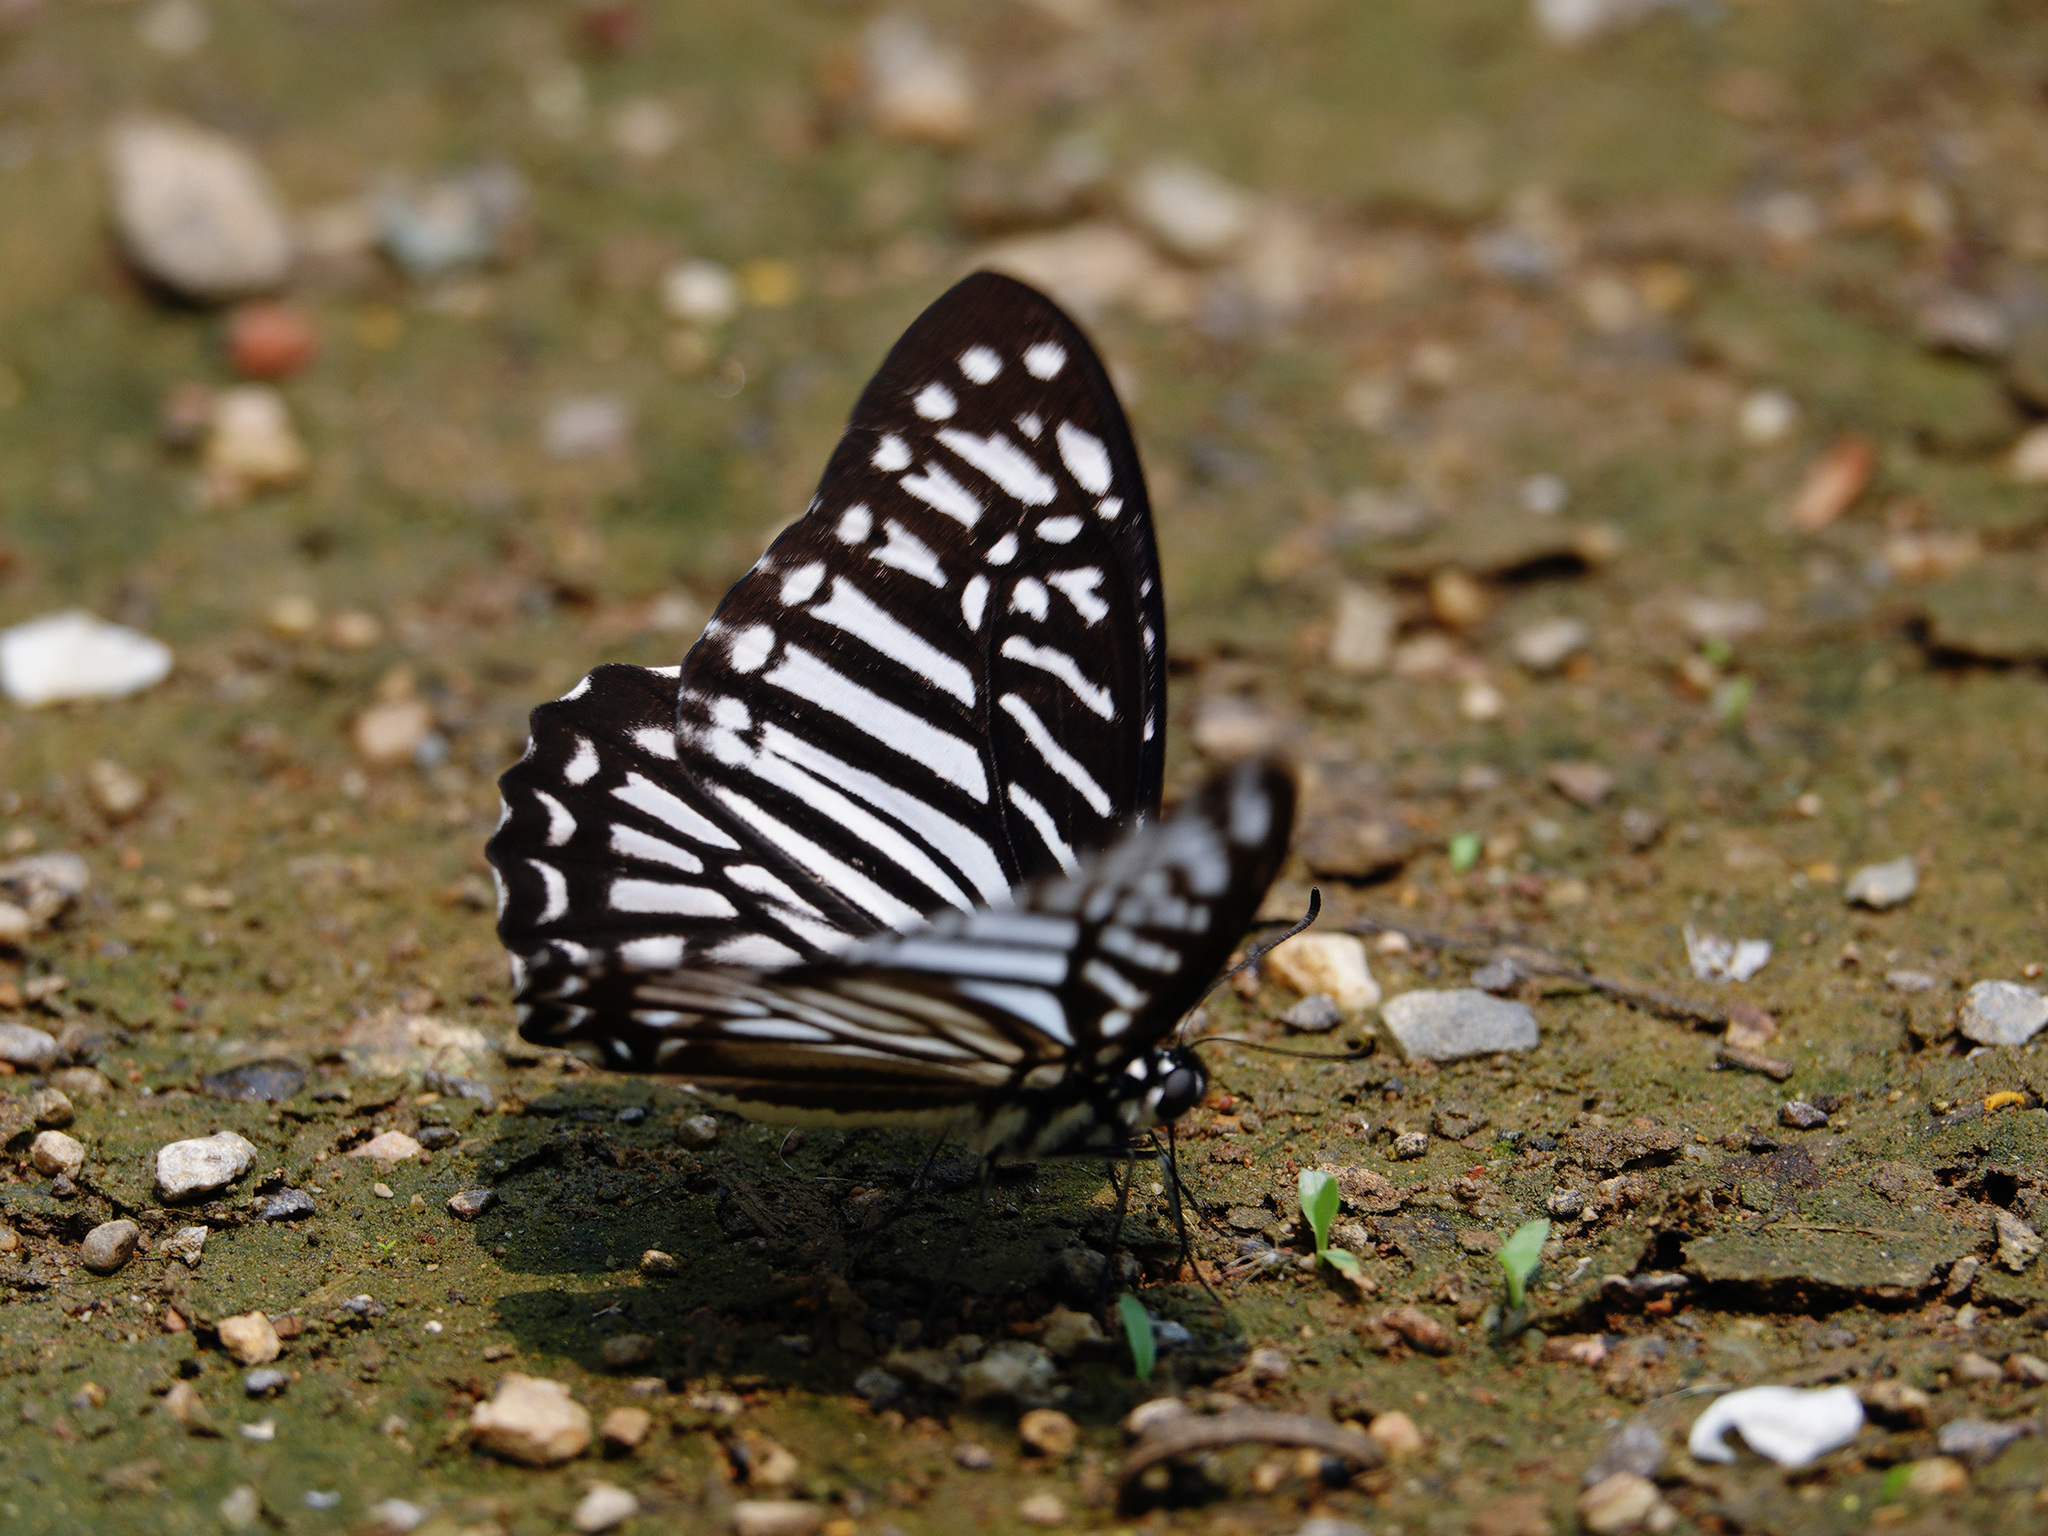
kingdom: Animalia
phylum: Arthropoda
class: Insecta
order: Lepidoptera
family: Papilionidae
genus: Graphium
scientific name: Graphium macareus
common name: Lesser zebra
